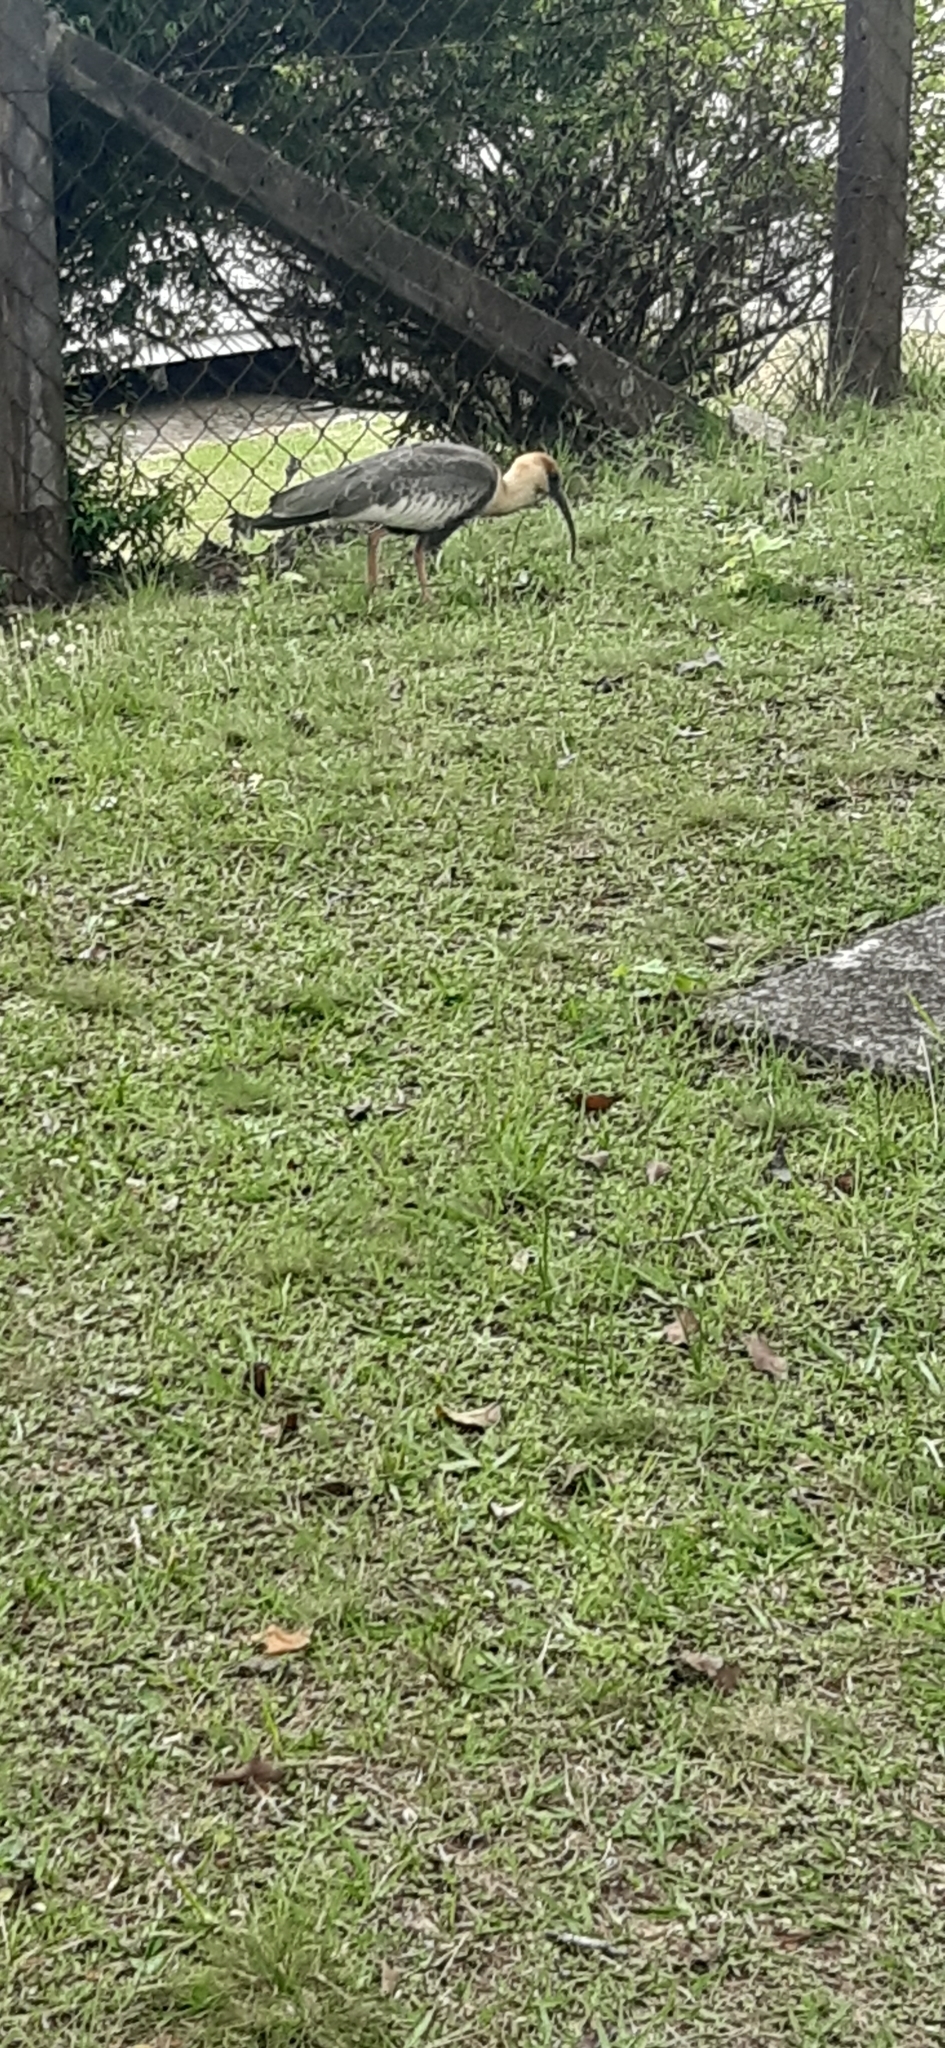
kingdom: Animalia
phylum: Chordata
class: Aves
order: Pelecaniformes
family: Threskiornithidae
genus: Theristicus
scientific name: Theristicus caudatus
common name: Buff-necked ibis
